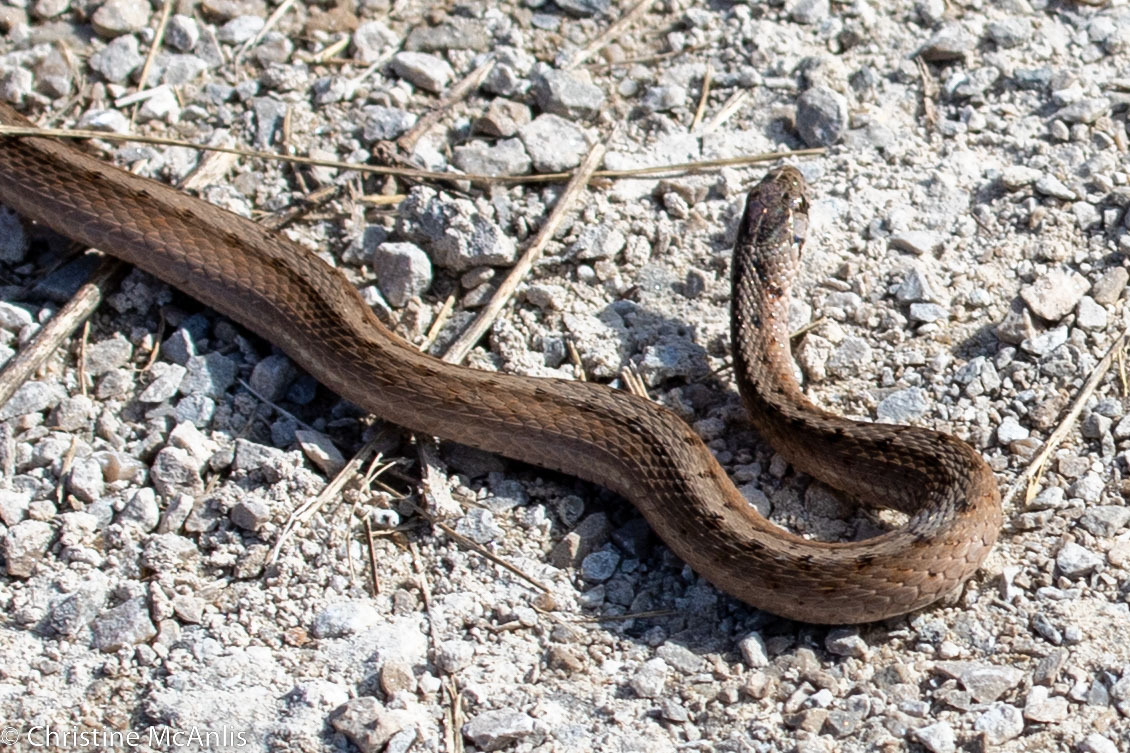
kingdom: Animalia
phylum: Chordata
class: Squamata
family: Colubridae
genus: Storeria
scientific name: Storeria dekayi
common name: (dekay’s) brown snake
